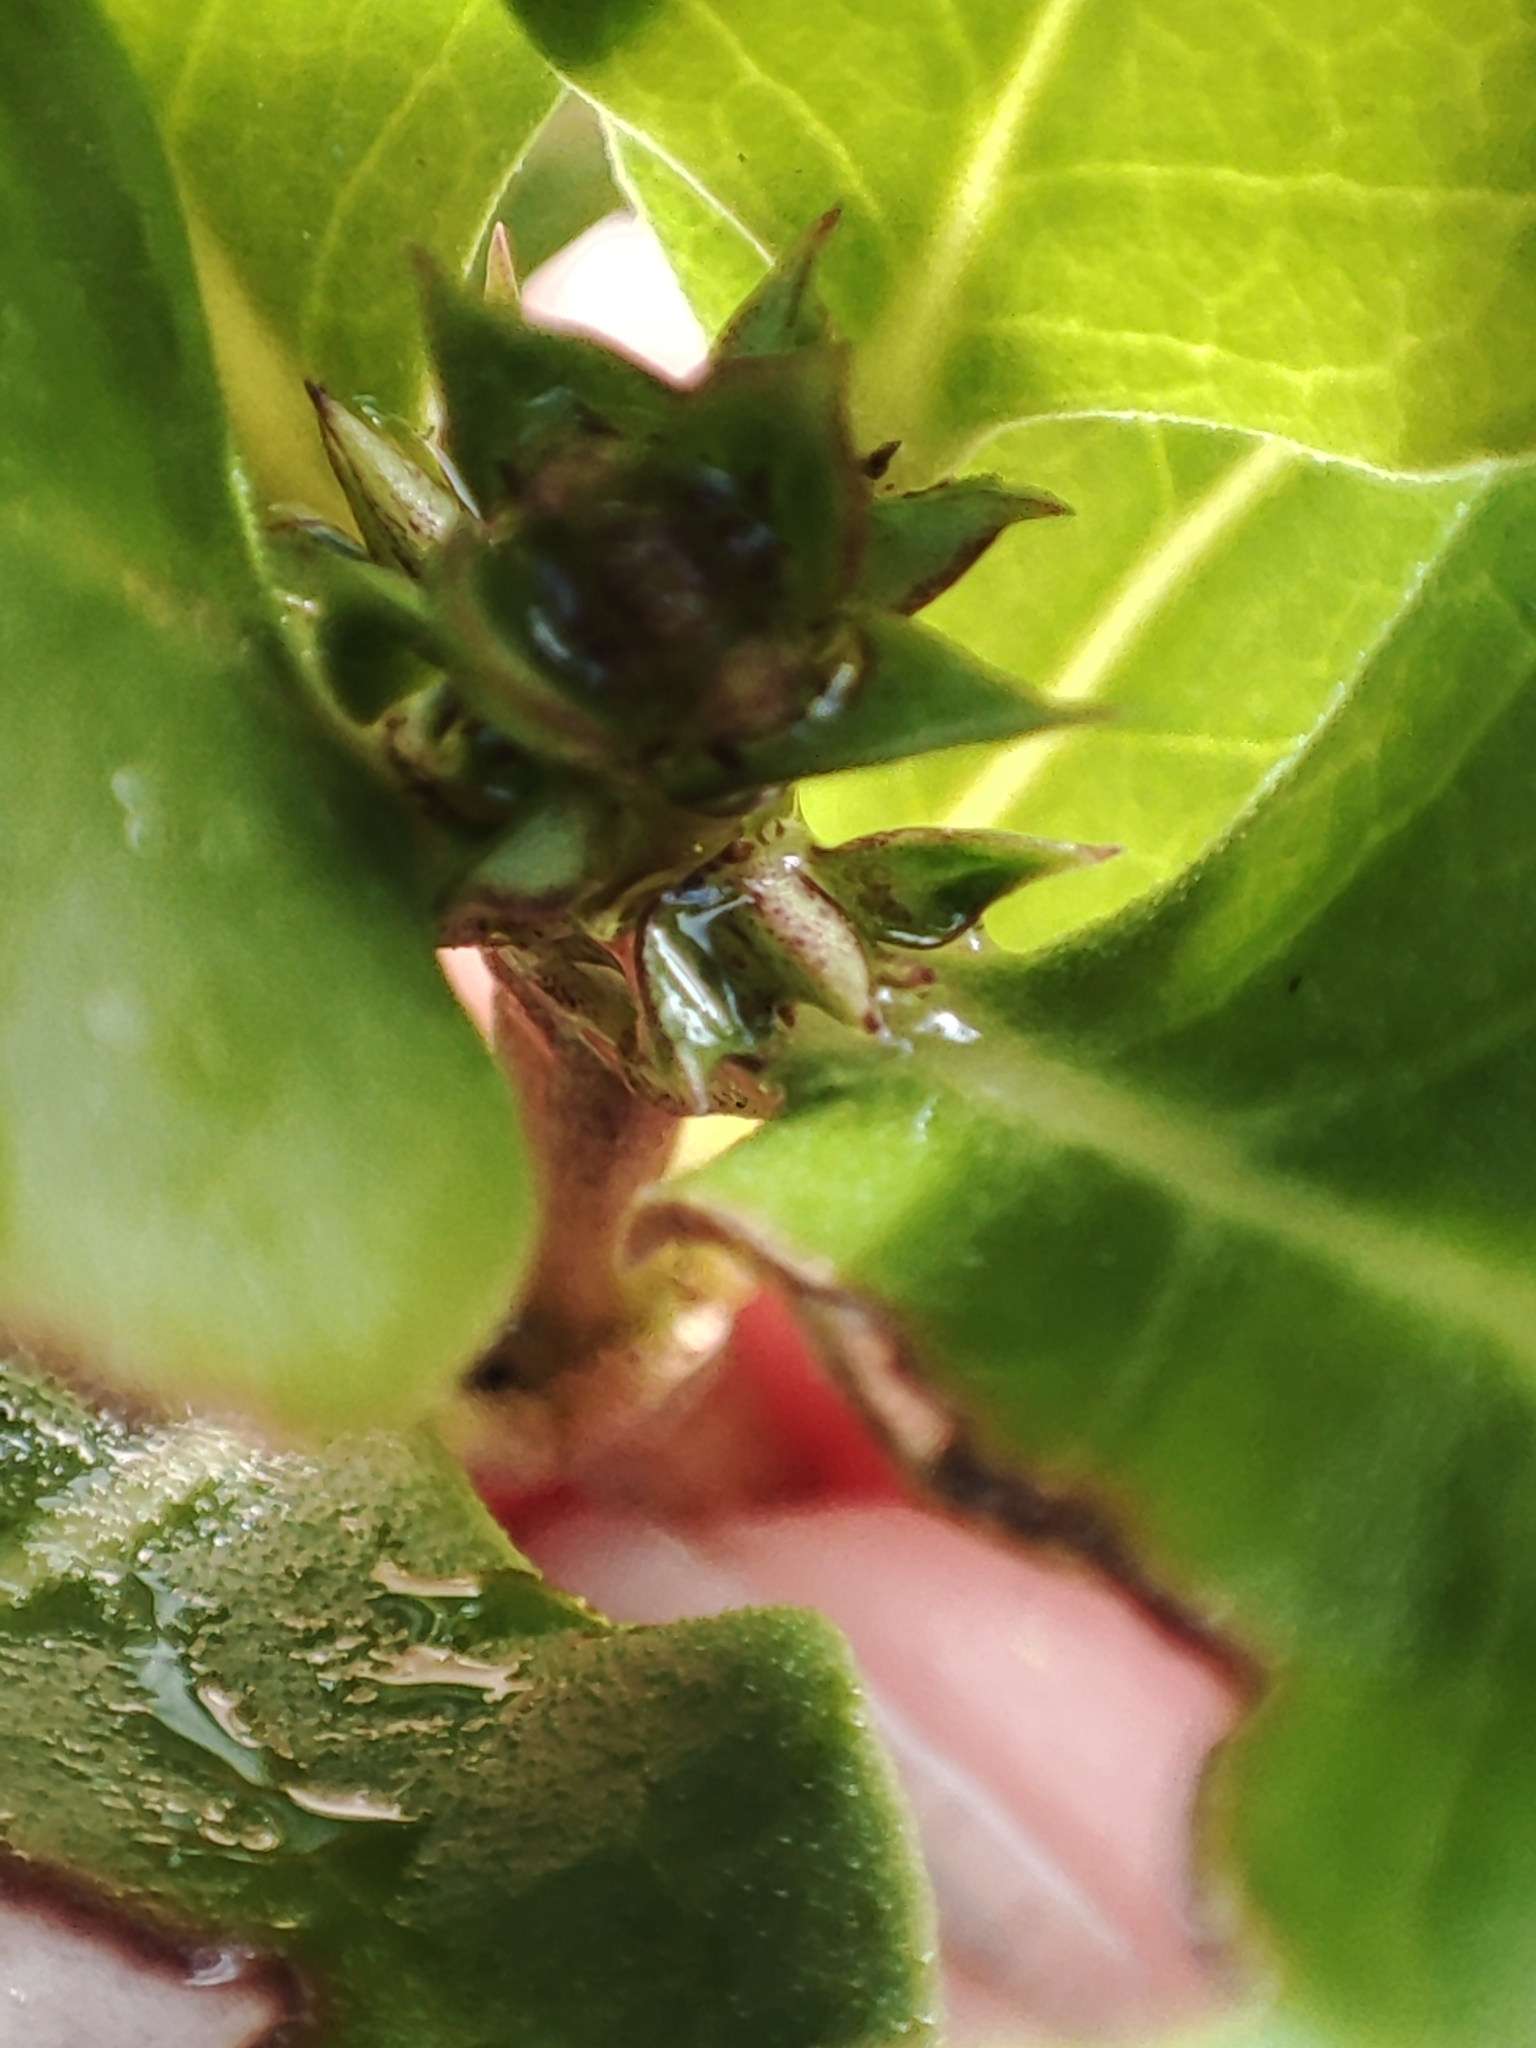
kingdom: Plantae
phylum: Tracheophyta
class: Magnoliopsida
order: Gentianales
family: Rubiaceae
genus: Coprosma
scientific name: Coprosma hirtella
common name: Rough coprosma
